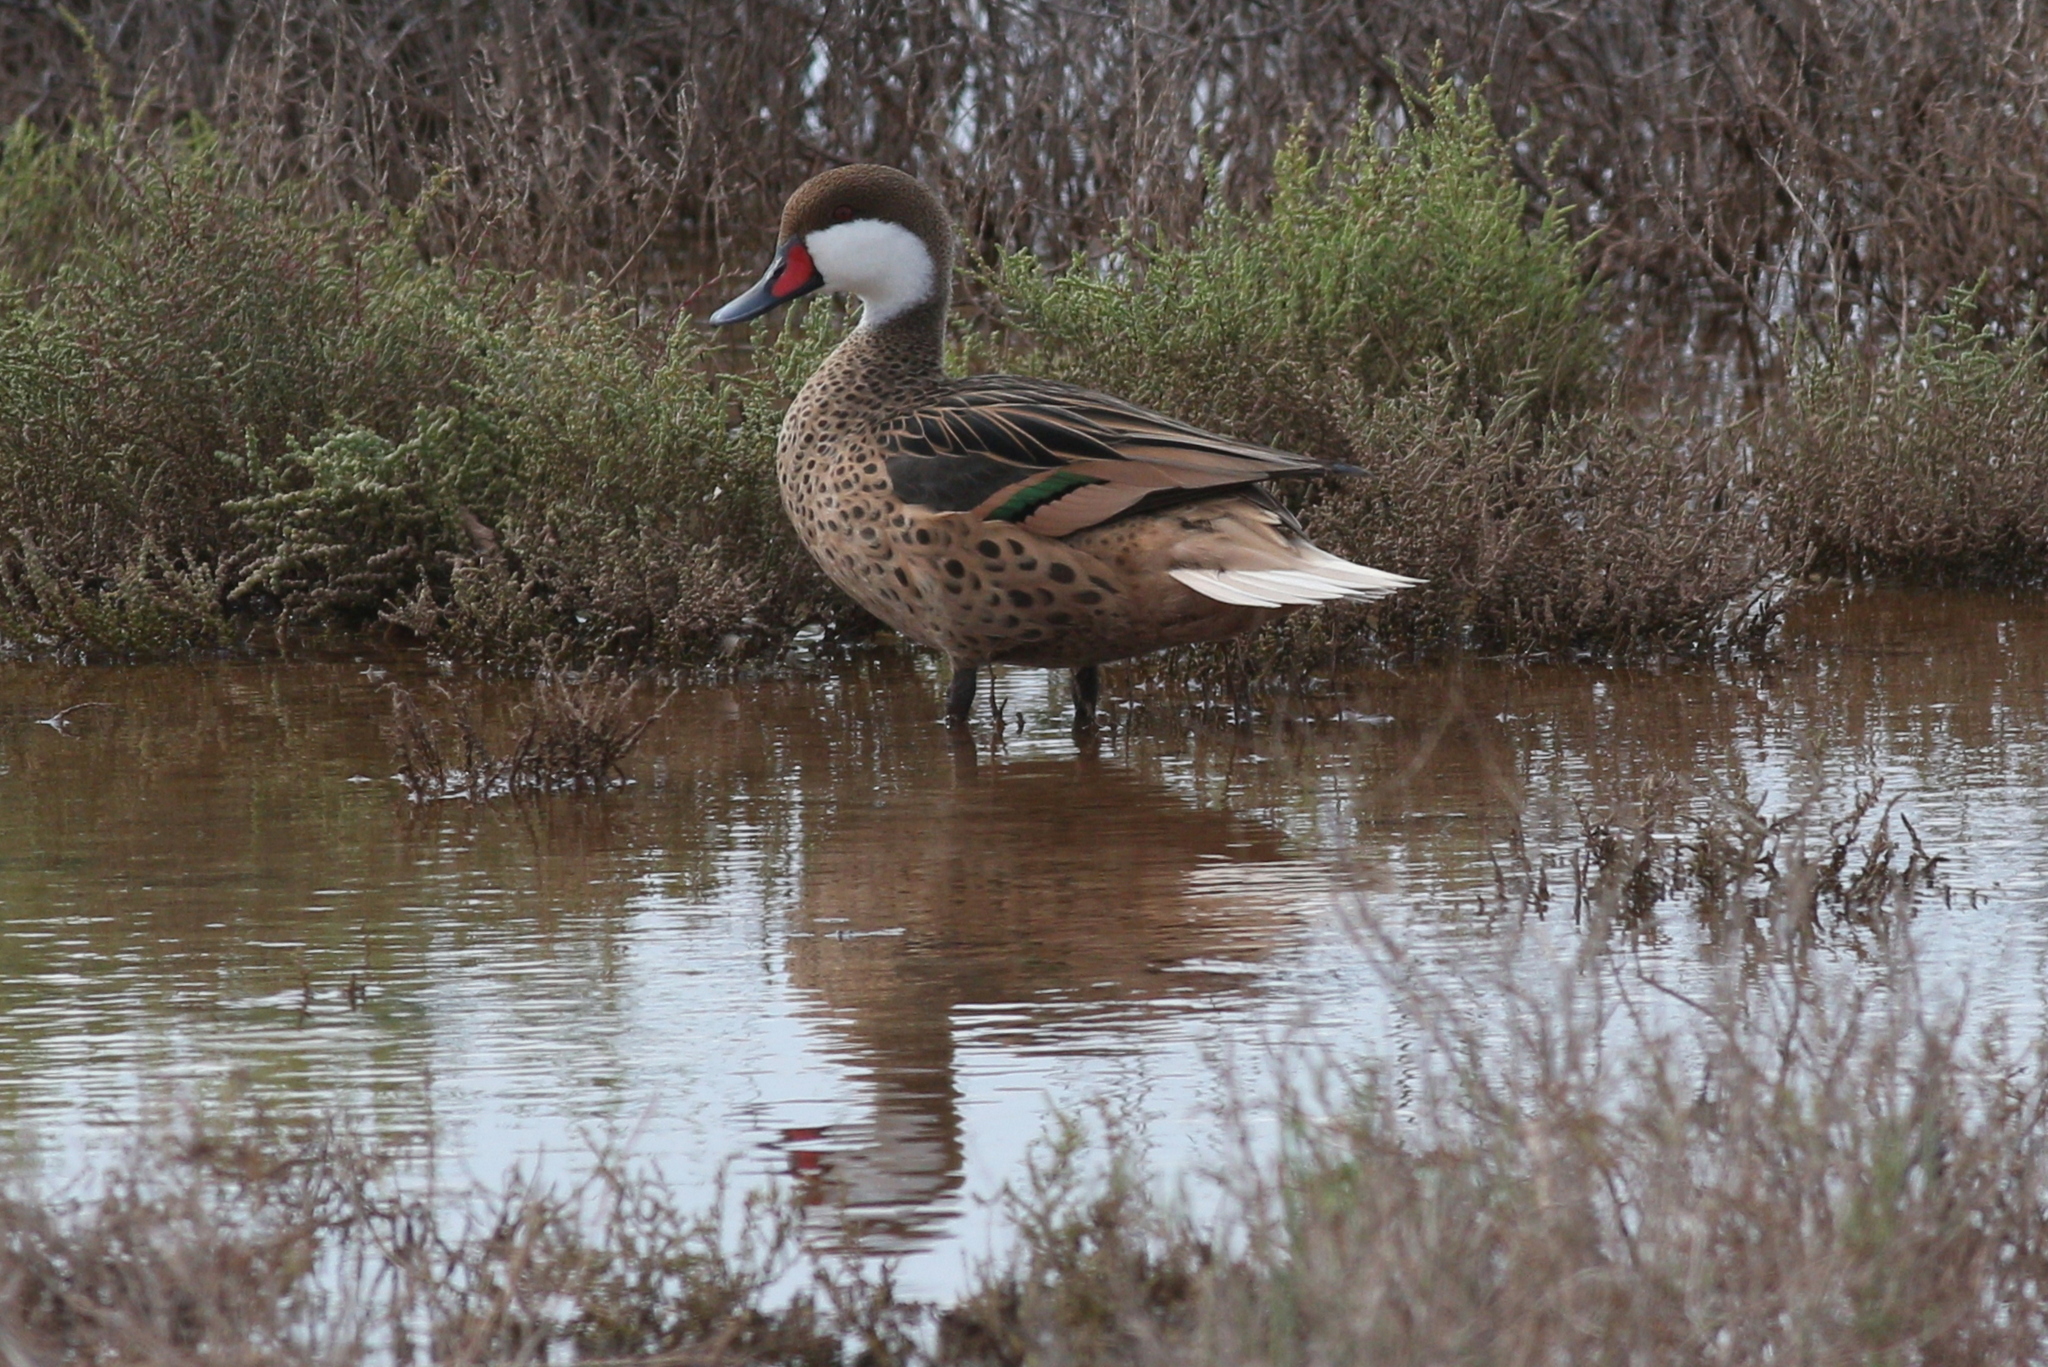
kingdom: Animalia
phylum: Chordata
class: Aves
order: Anseriformes
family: Anatidae
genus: Anas
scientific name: Anas bahamensis
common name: White-cheeked pintail
